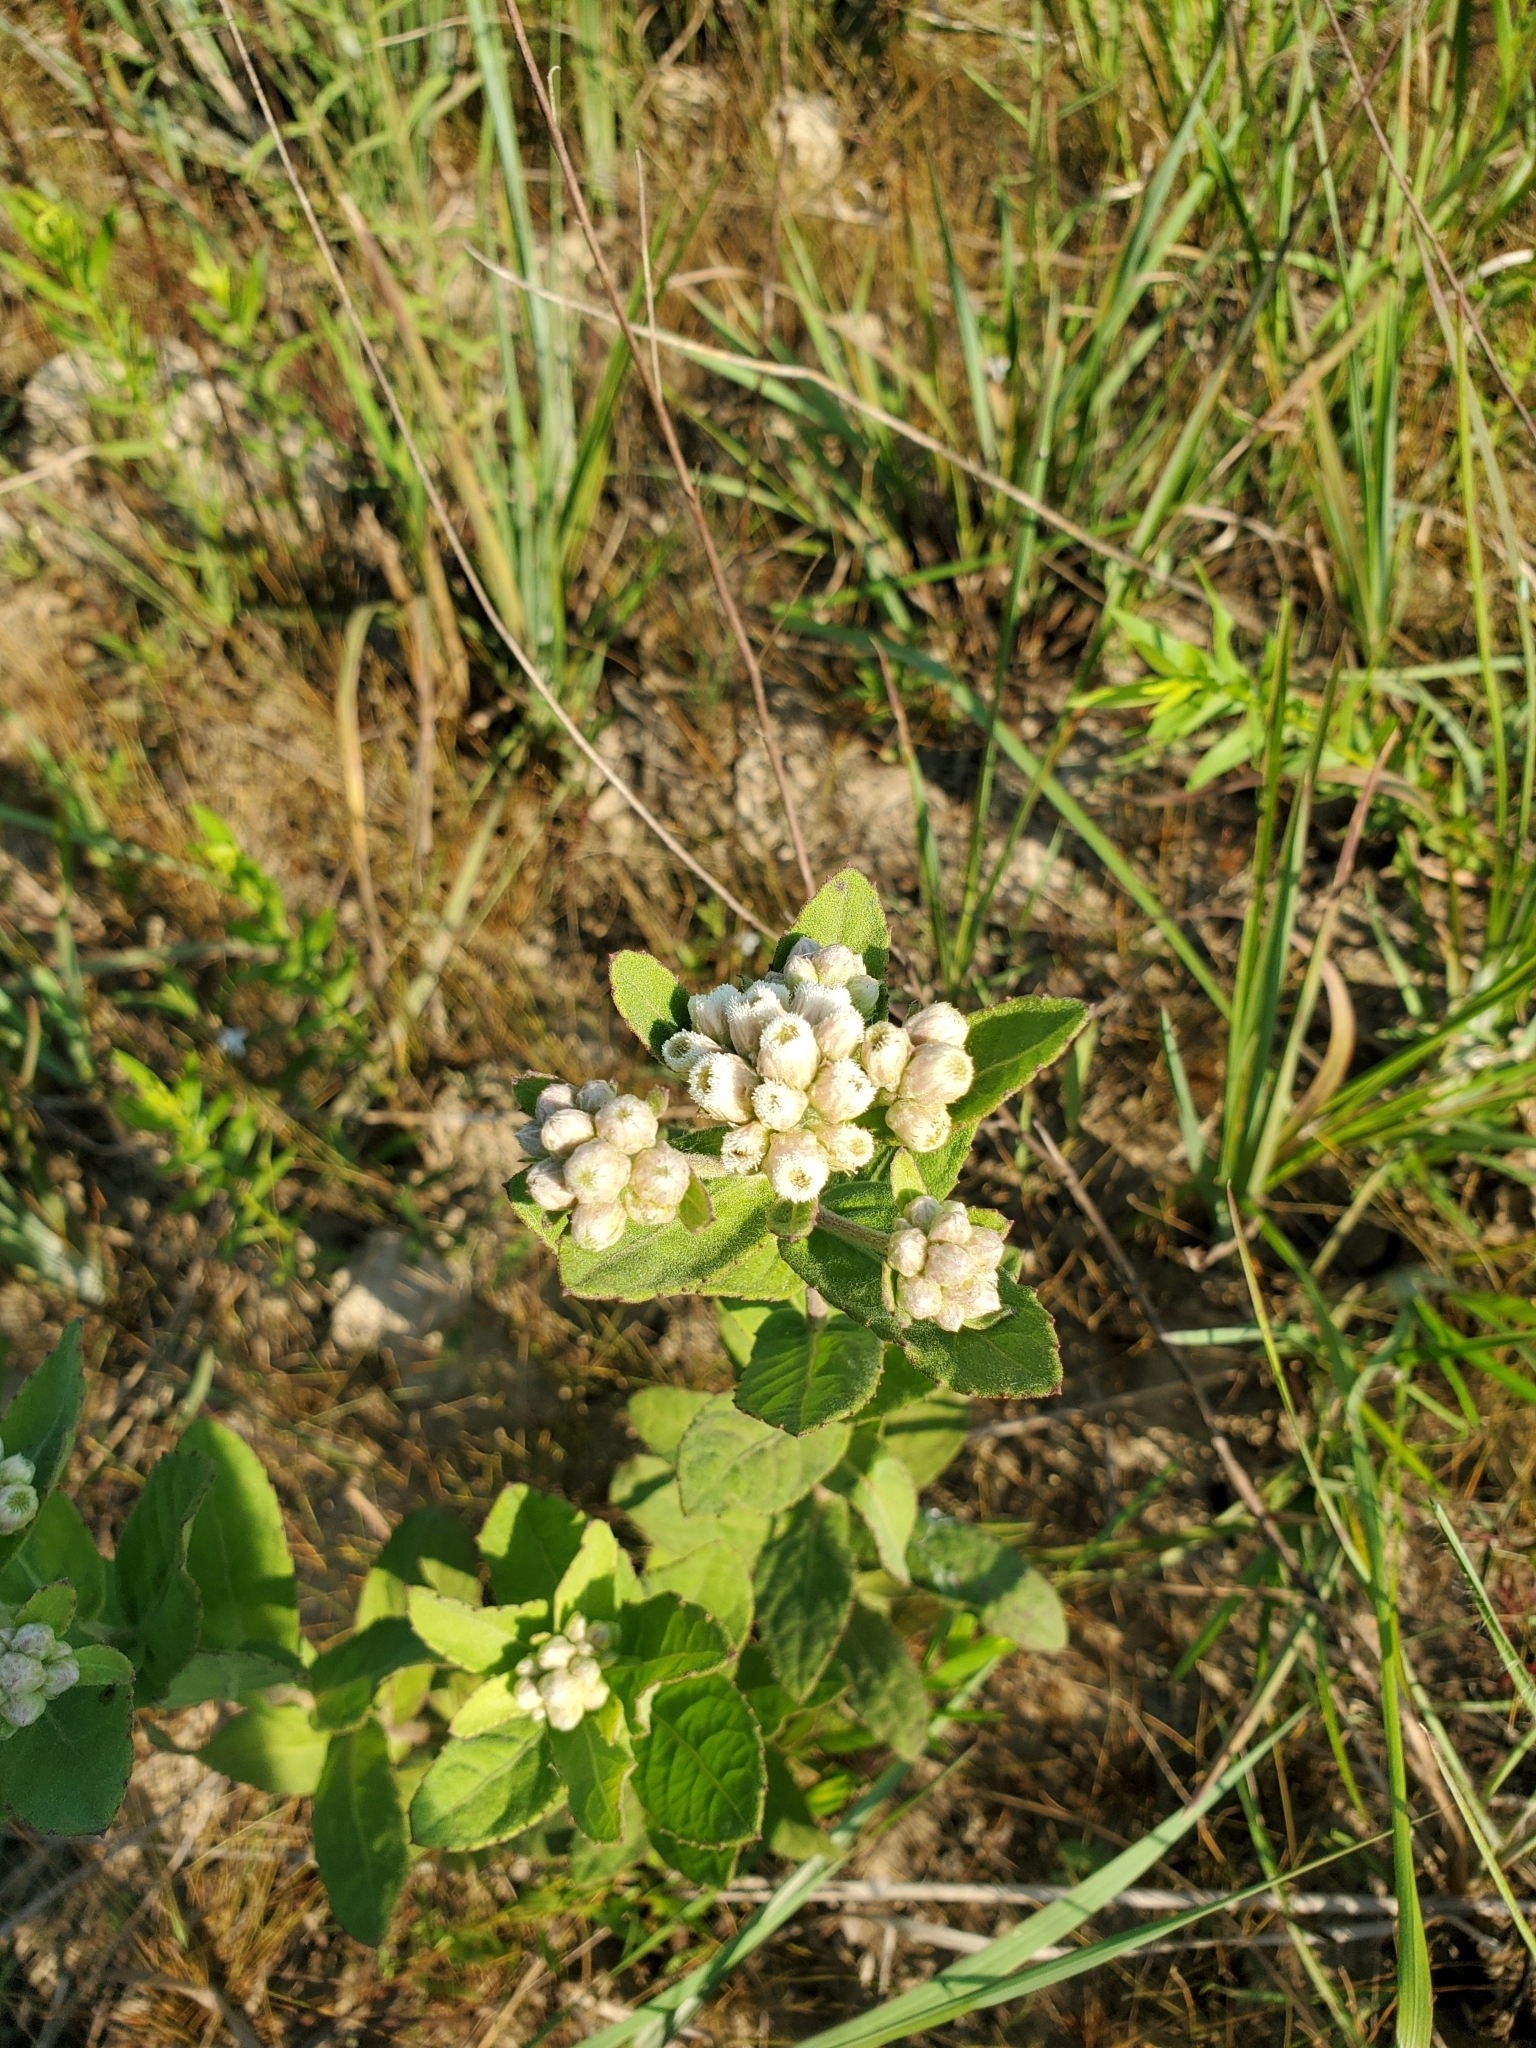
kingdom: Plantae
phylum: Tracheophyta
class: Magnoliopsida
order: Asterales
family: Asteraceae
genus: Pluchea
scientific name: Pluchea foetida
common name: Stinking camphorweed
